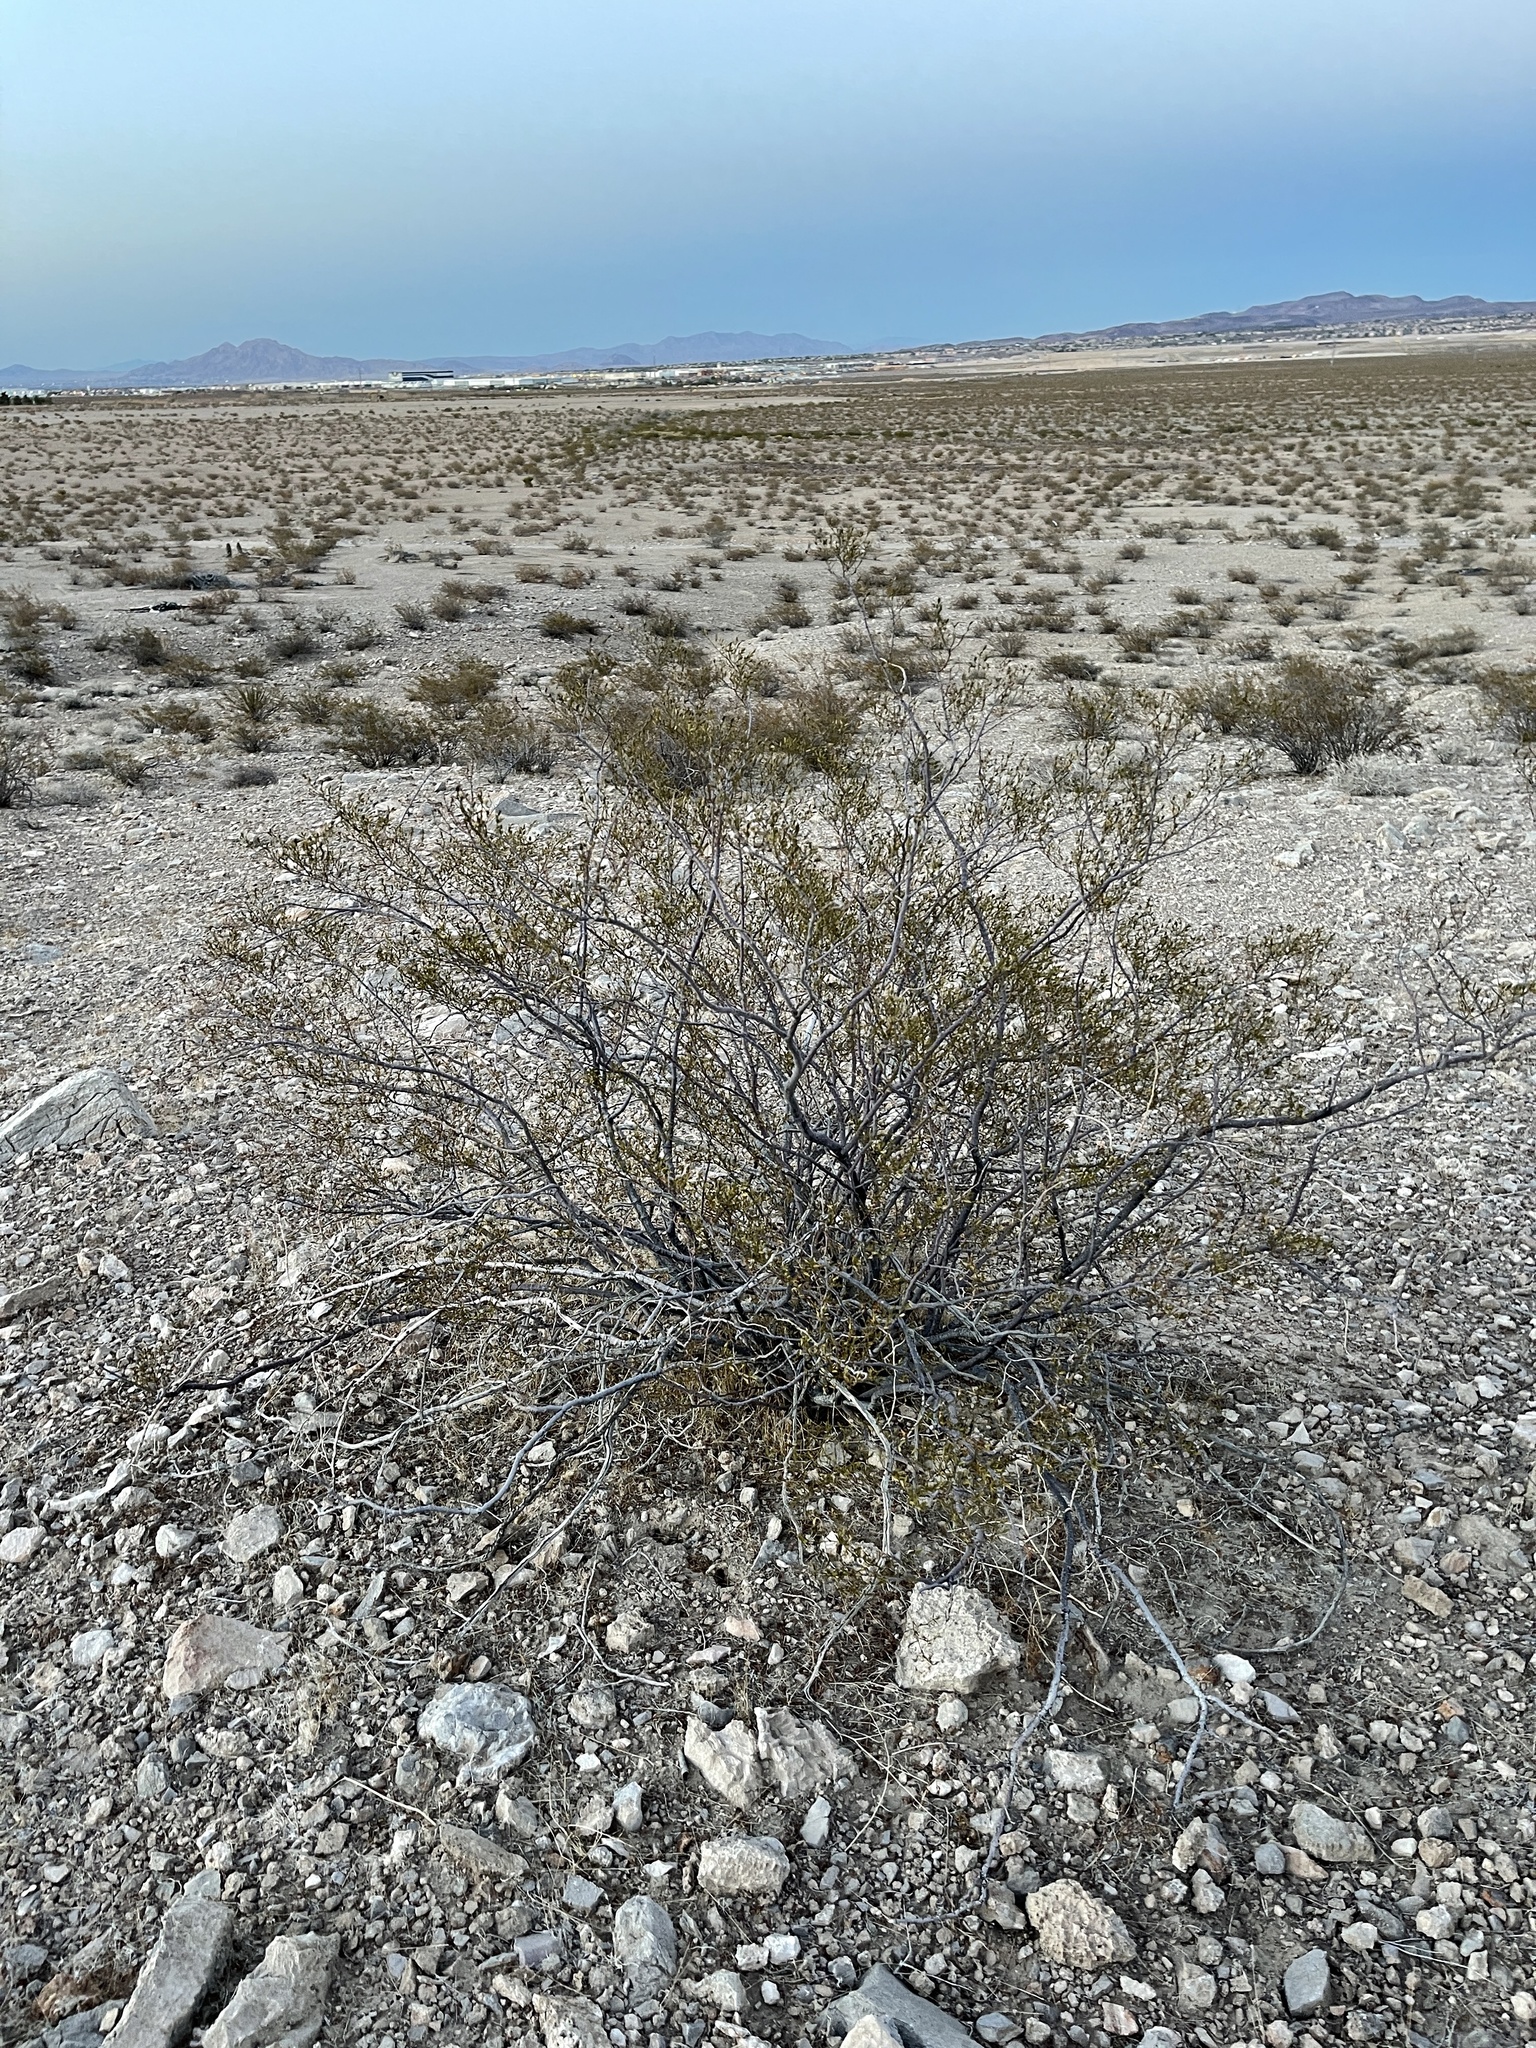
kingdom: Plantae
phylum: Tracheophyta
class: Magnoliopsida
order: Zygophyllales
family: Zygophyllaceae
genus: Larrea
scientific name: Larrea tridentata
